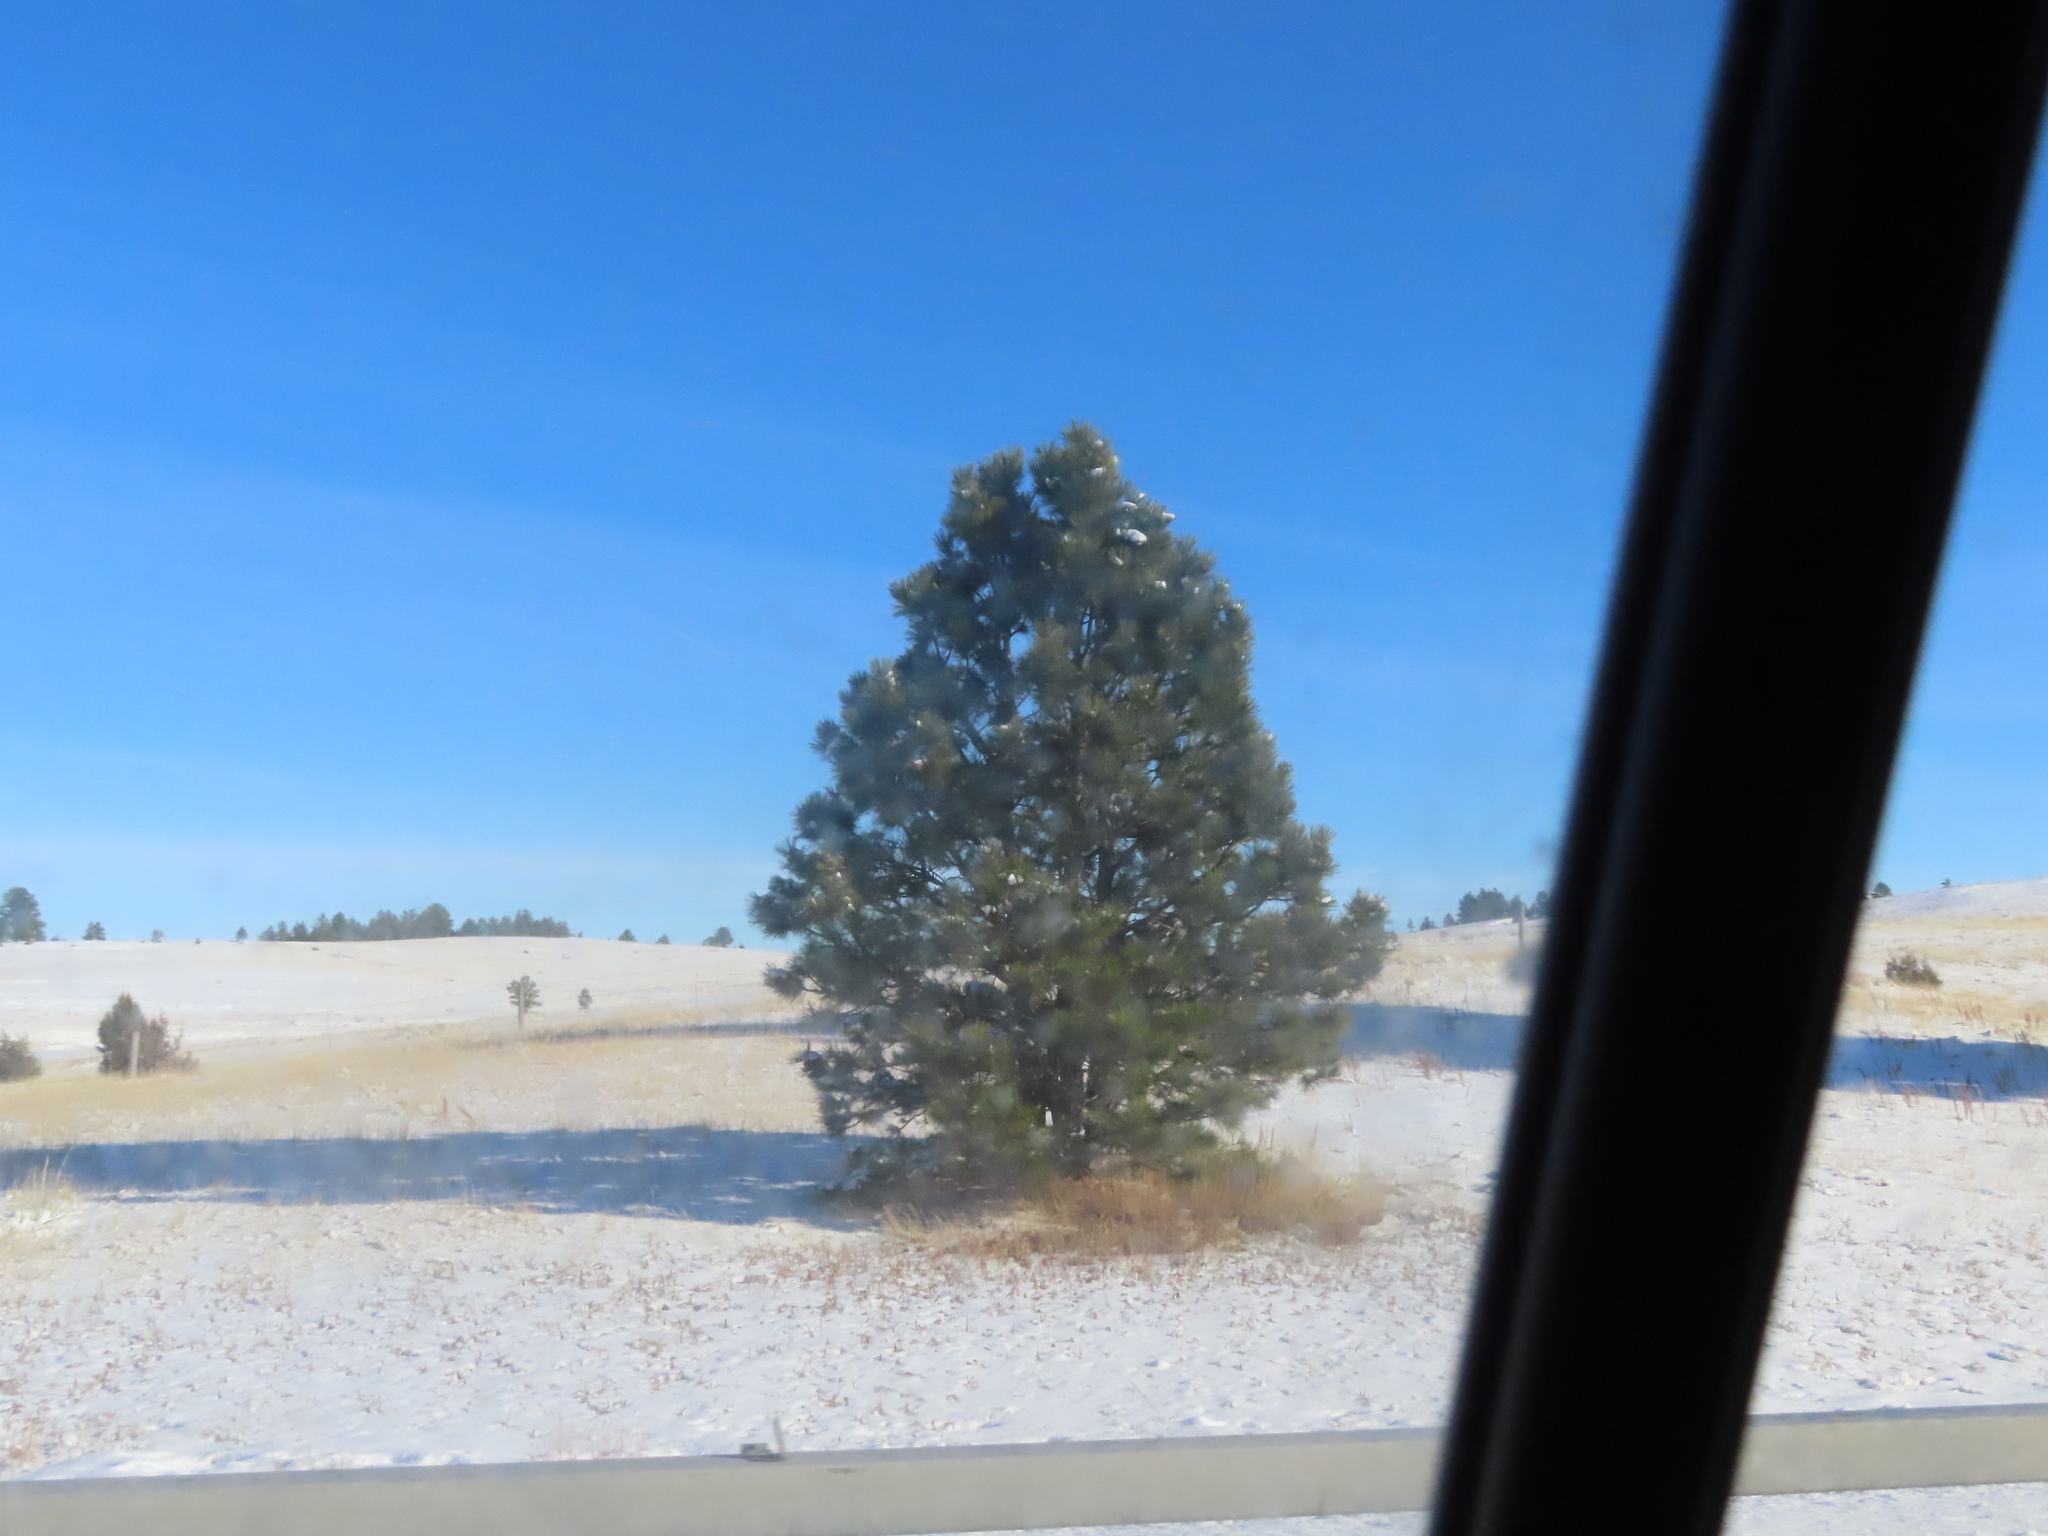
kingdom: Plantae
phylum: Tracheophyta
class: Pinopsida
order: Pinales
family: Pinaceae
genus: Pinus
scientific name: Pinus ponderosa
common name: Western yellow-pine
